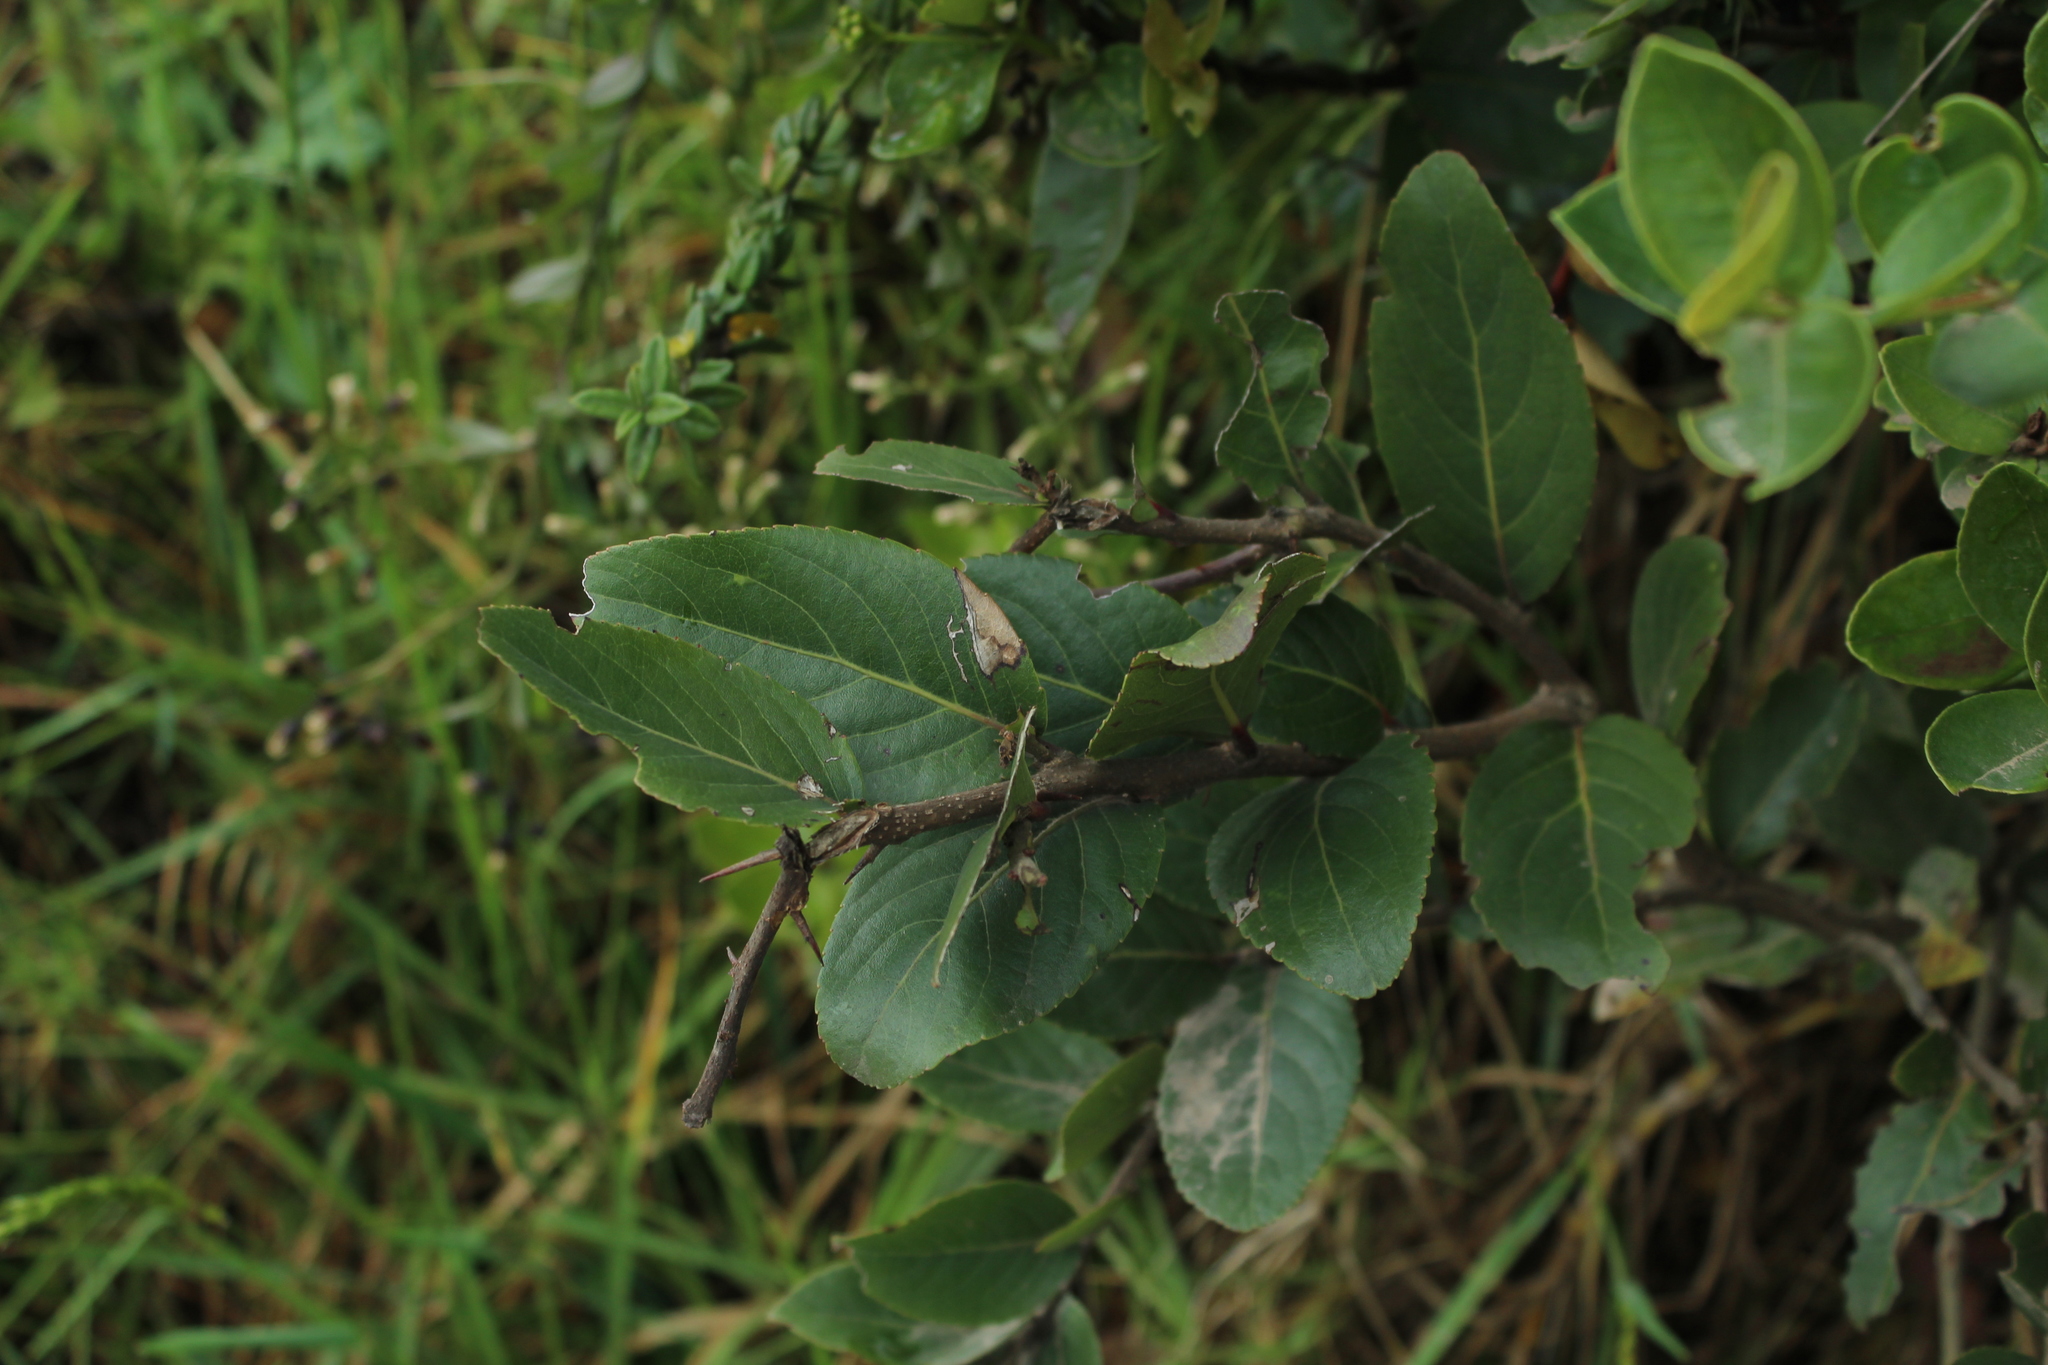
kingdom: Plantae
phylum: Tracheophyta
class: Magnoliopsida
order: Malpighiales
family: Salicaceae
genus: Xylosma
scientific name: Xylosma spiculifera
